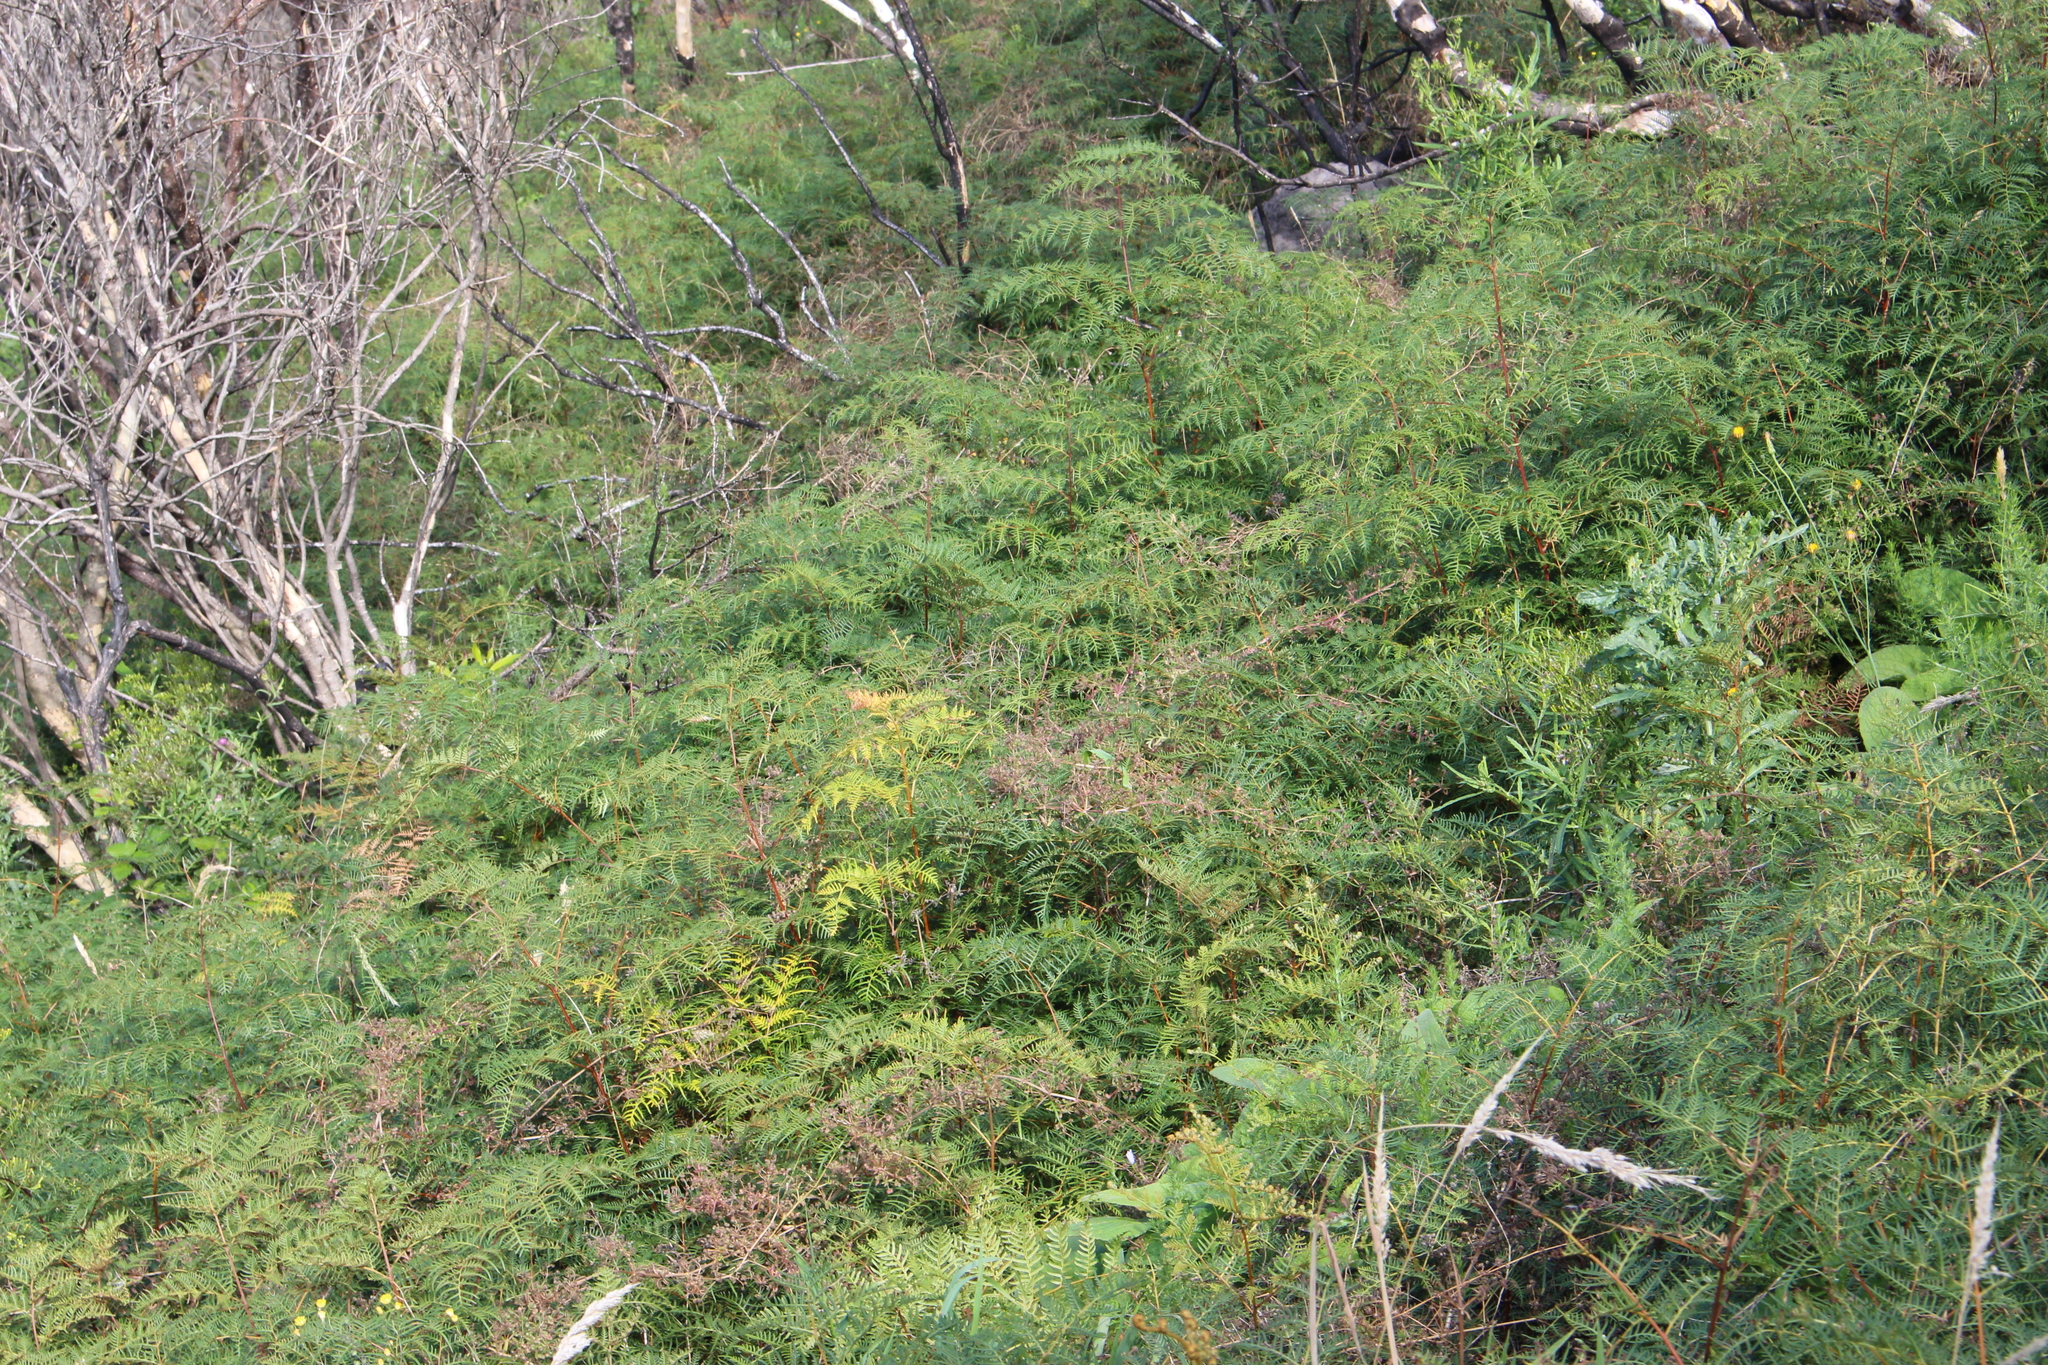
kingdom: Plantae
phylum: Tracheophyta
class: Polypodiopsida
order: Polypodiales
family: Dennstaedtiaceae
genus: Pteridium
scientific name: Pteridium esculentum
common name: Bracken fern
